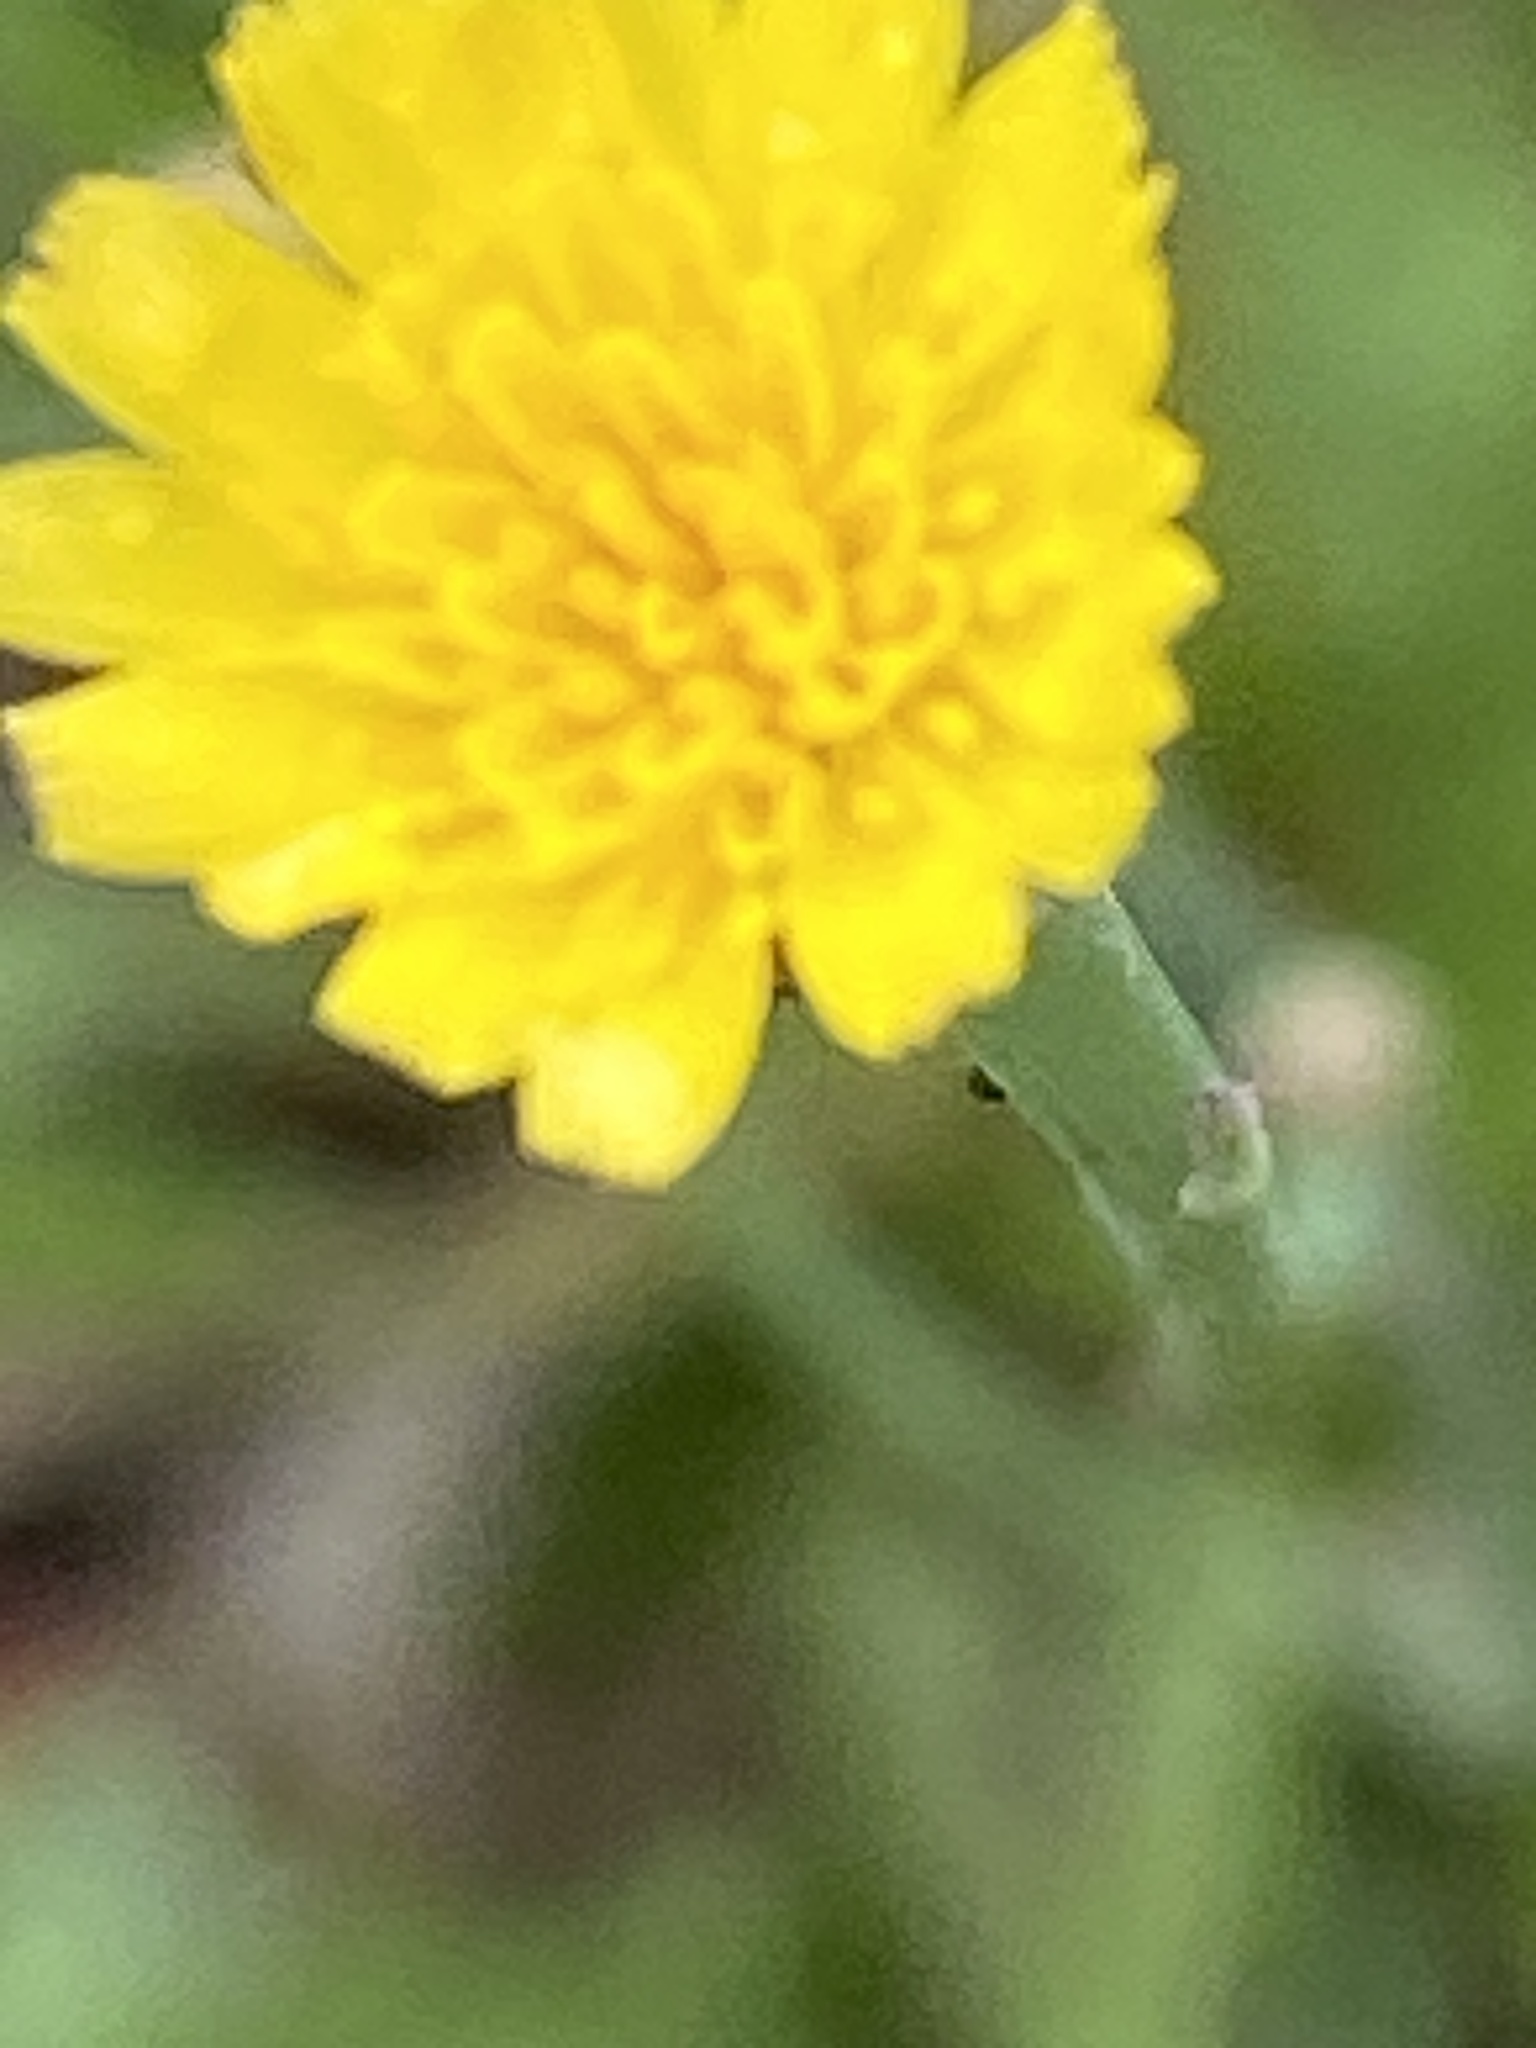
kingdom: Plantae
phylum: Tracheophyta
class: Magnoliopsida
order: Asterales
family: Asteraceae
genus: Hypochaeris
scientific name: Hypochaeris glabra
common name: Smooth catsear
